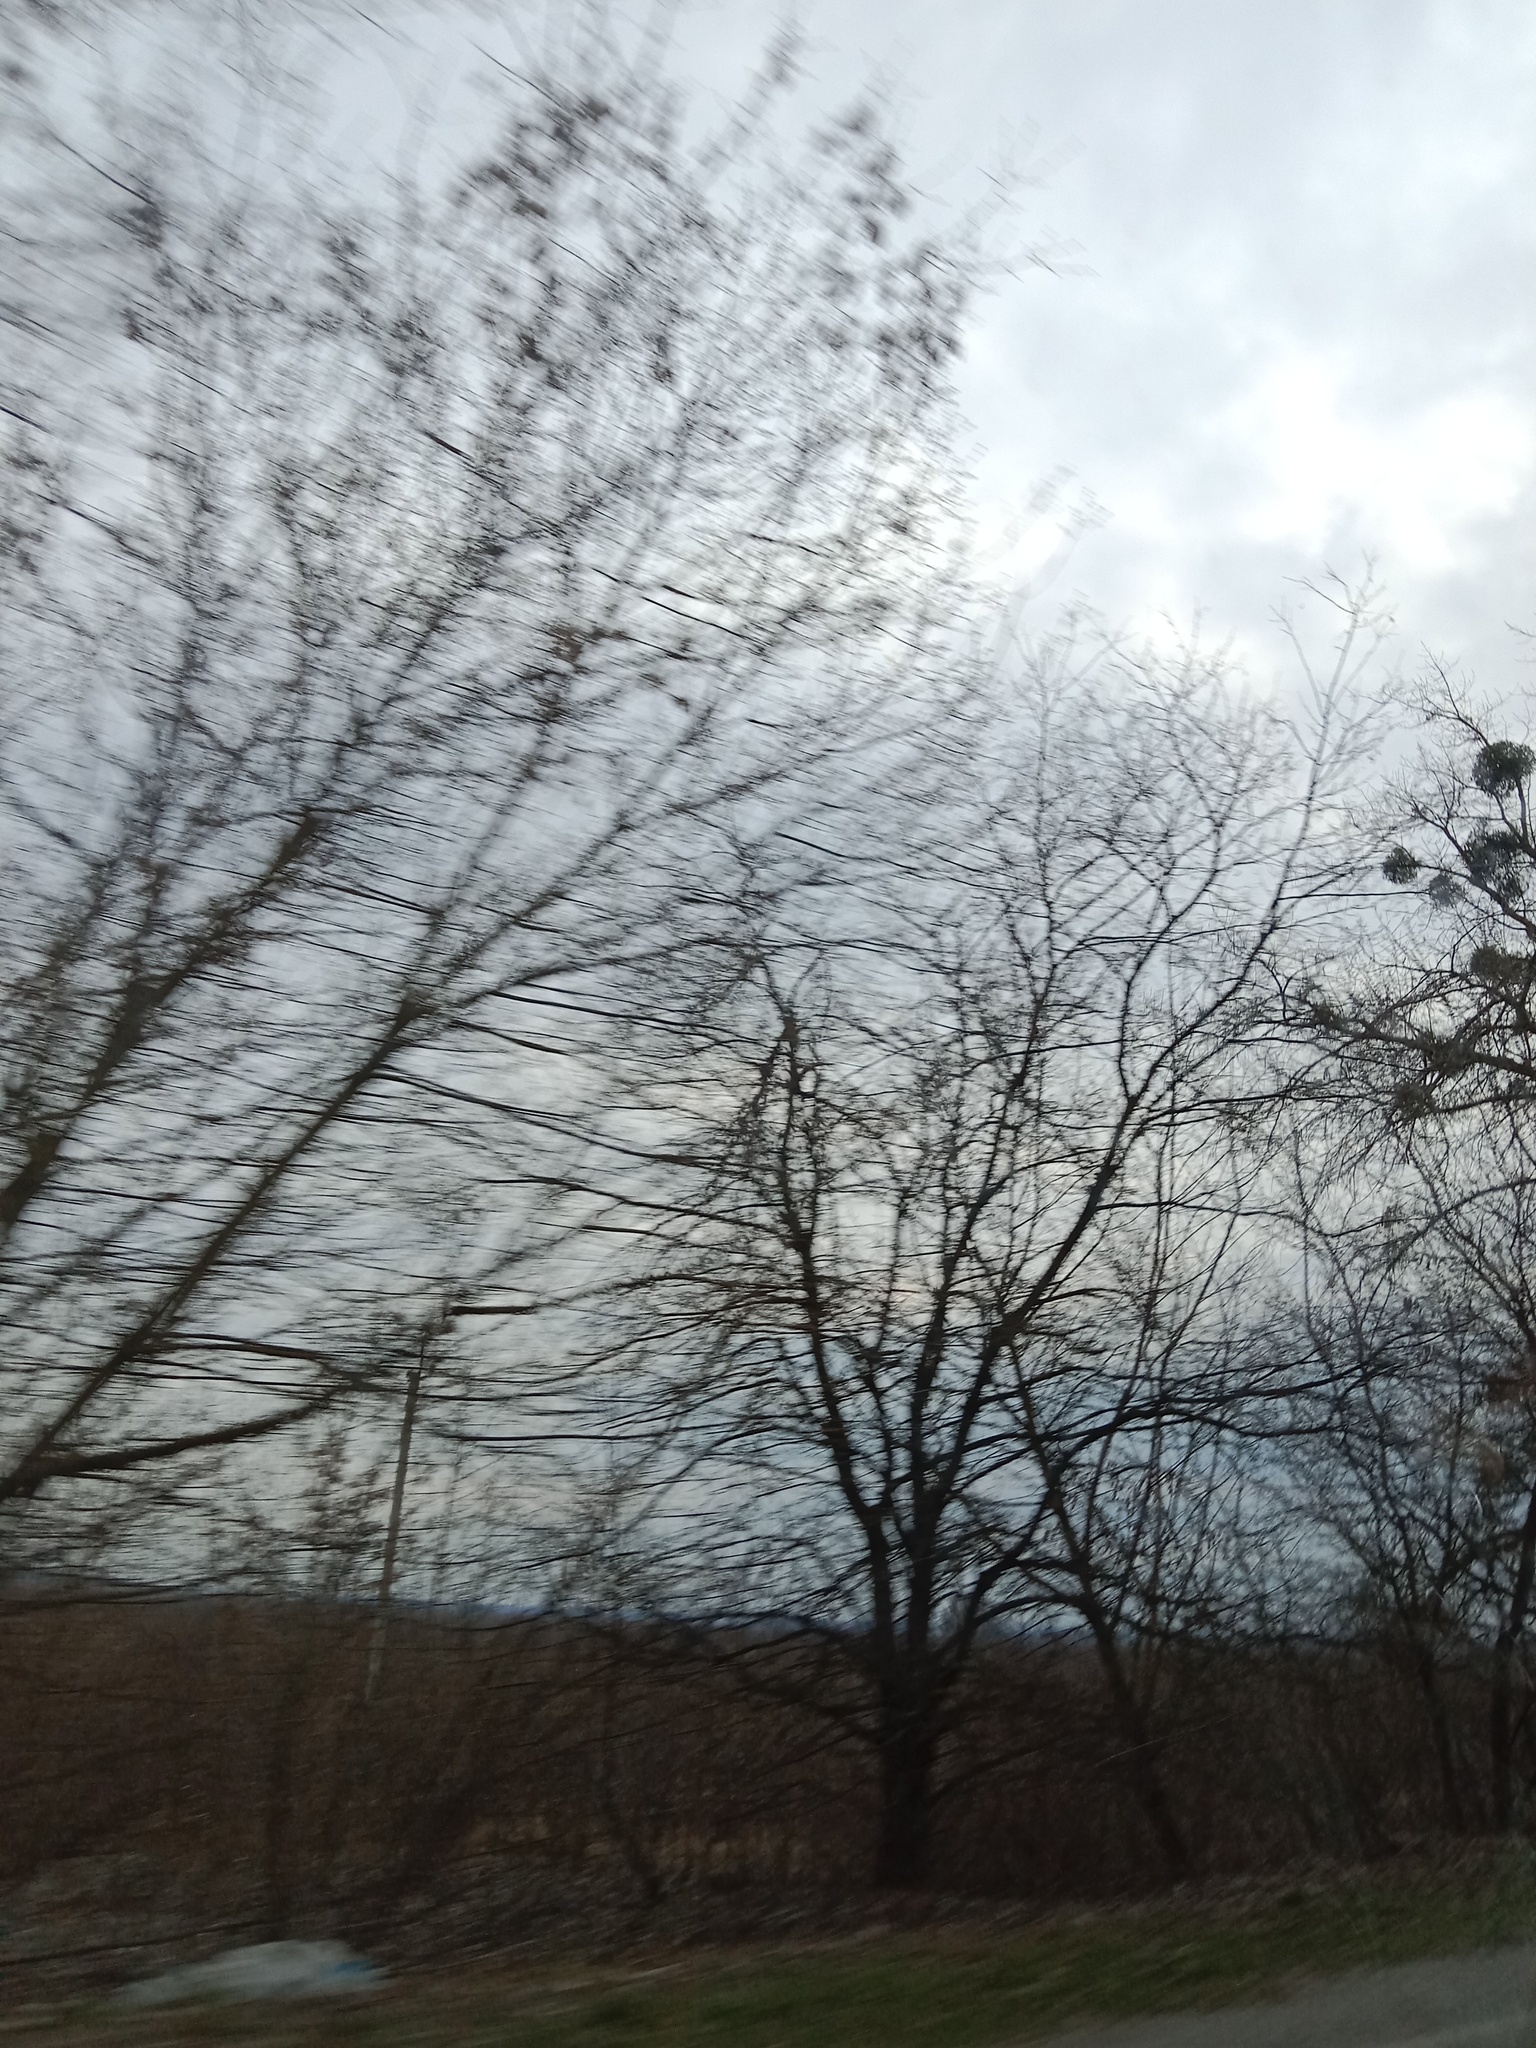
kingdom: Plantae
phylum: Tracheophyta
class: Magnoliopsida
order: Santalales
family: Viscaceae
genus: Viscum
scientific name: Viscum album
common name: Mistletoe
